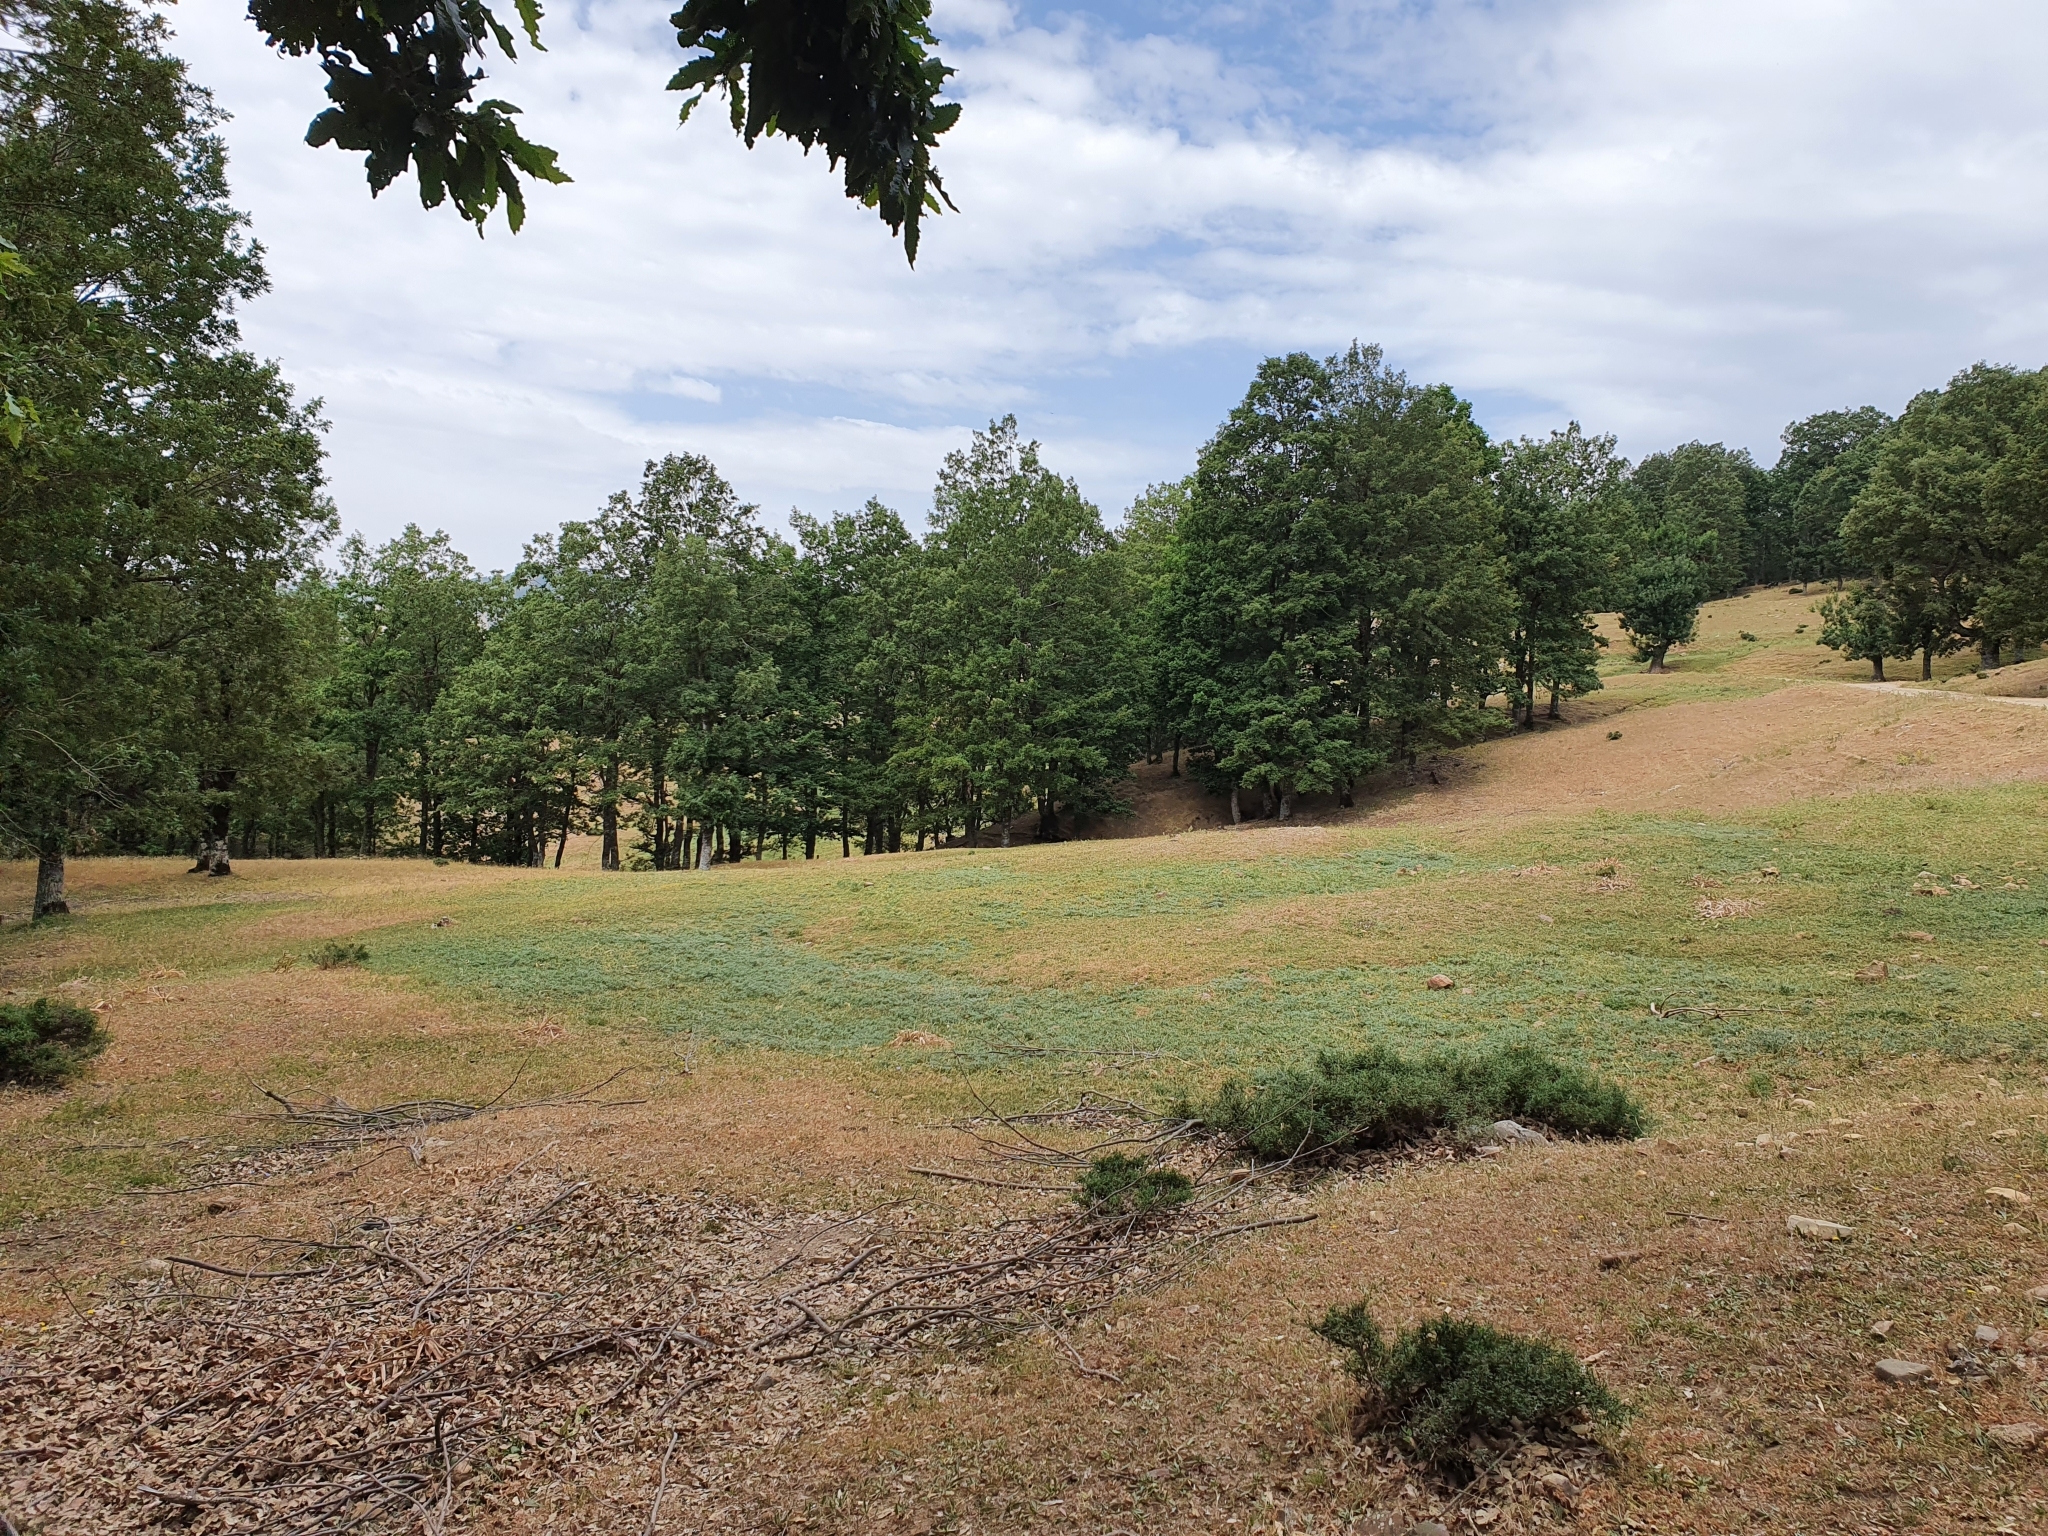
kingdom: Plantae
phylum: Tracheophyta
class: Magnoliopsida
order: Fagales
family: Fagaceae
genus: Quercus
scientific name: Quercus canariensis
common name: Algerian oak
